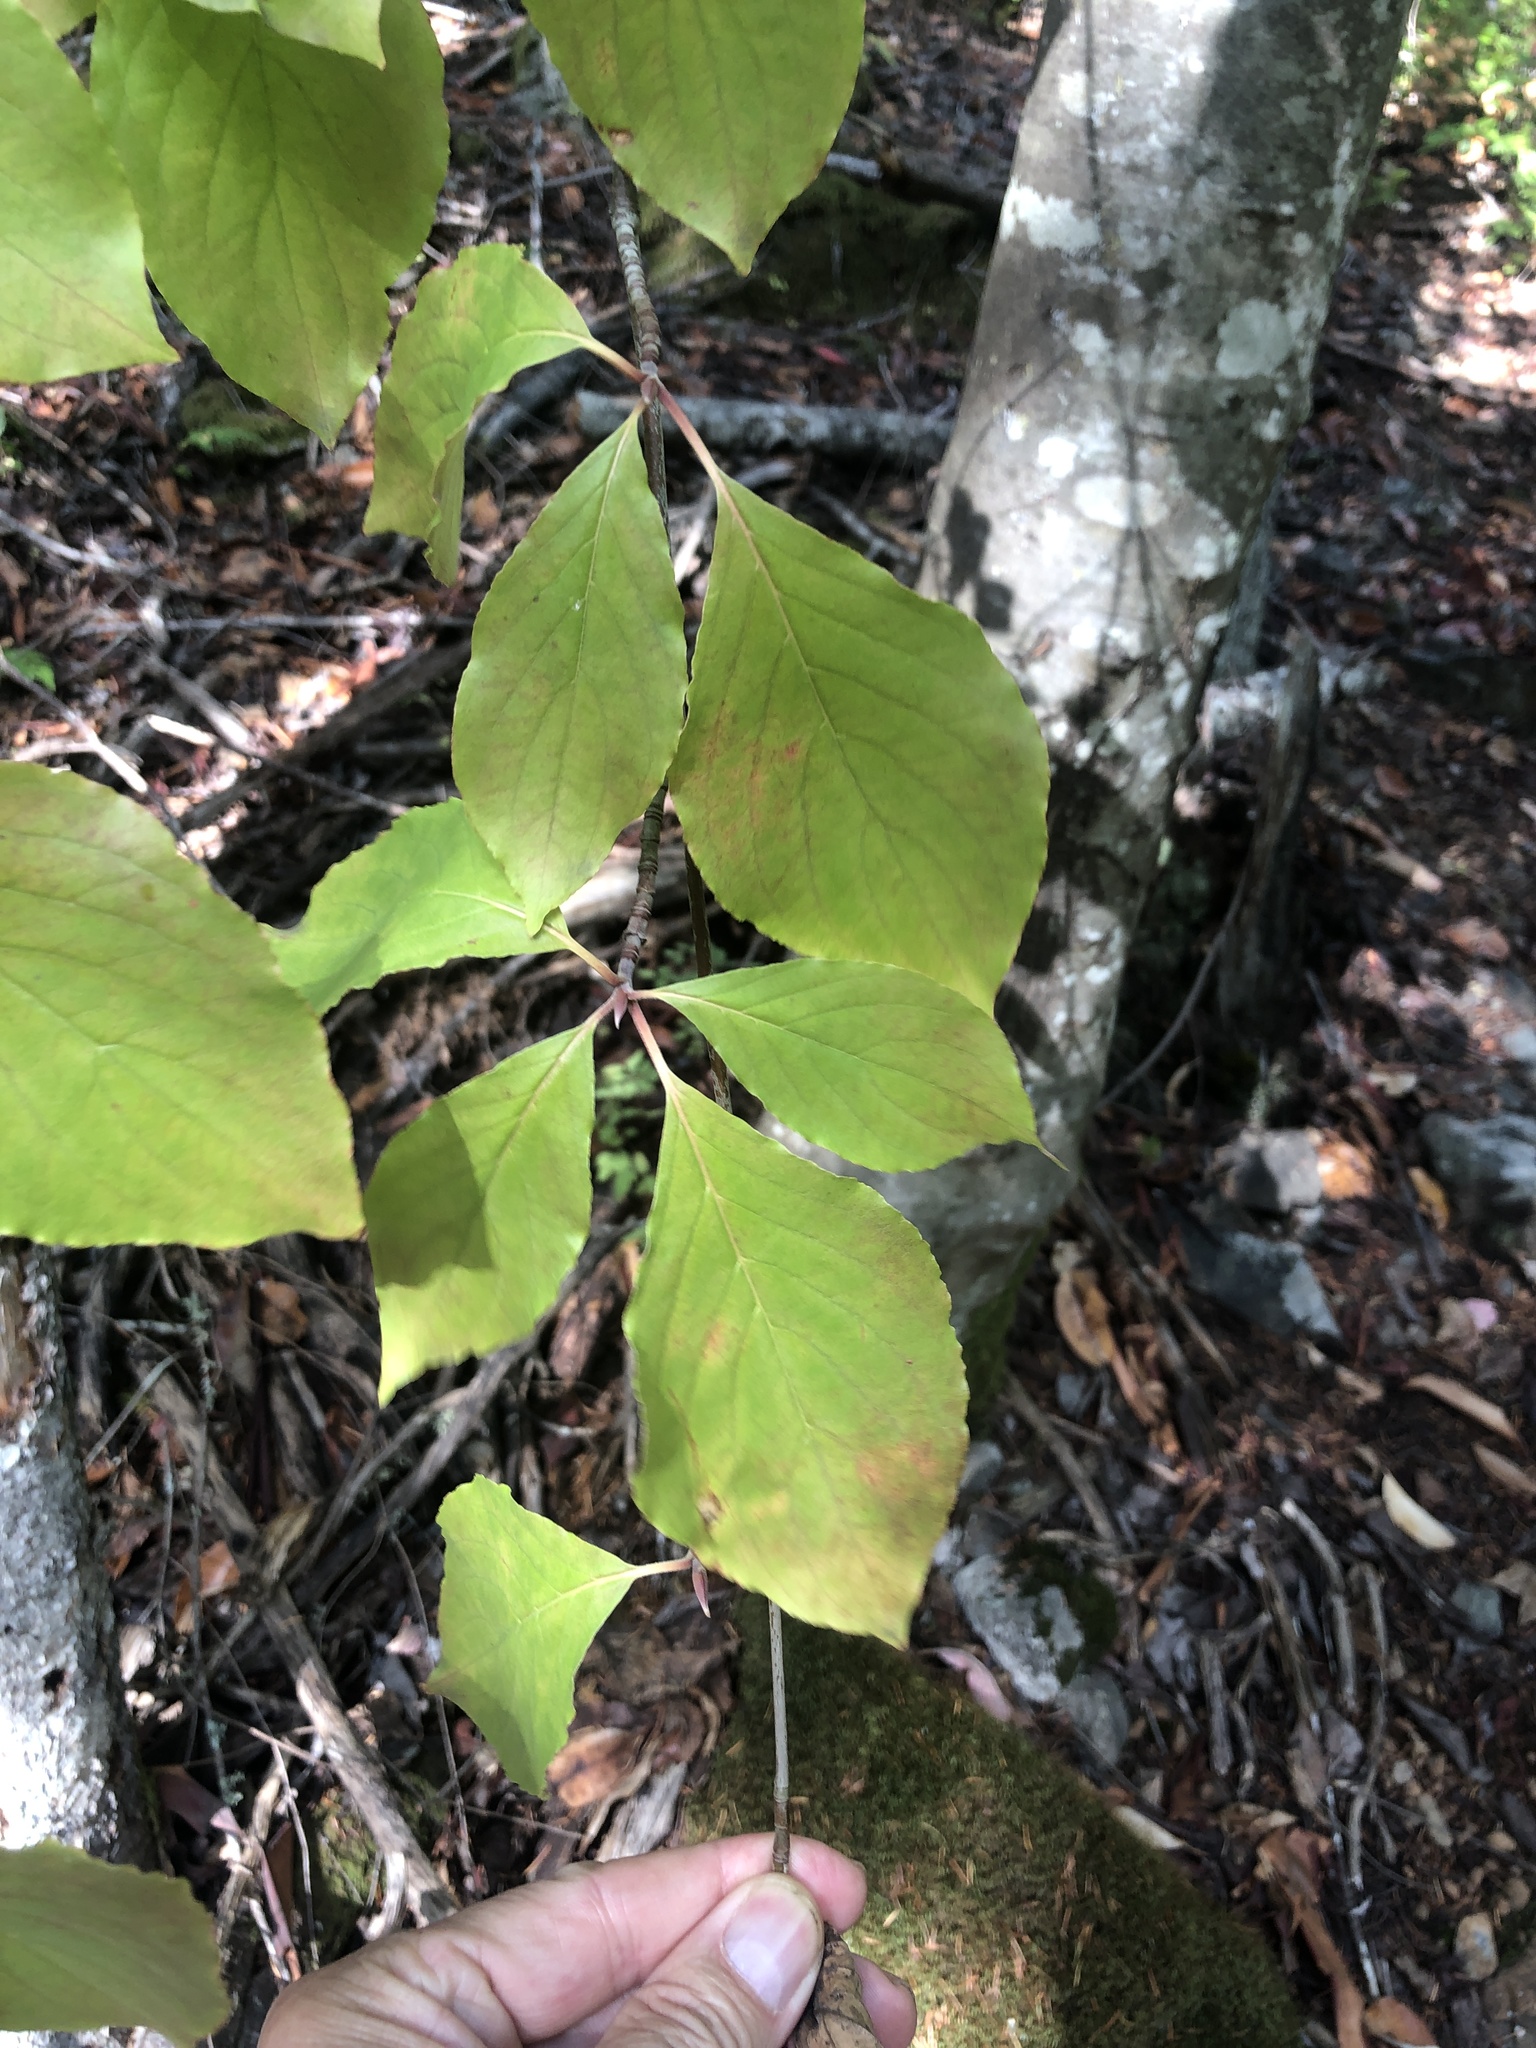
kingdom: Plantae
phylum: Tracheophyta
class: Magnoliopsida
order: Cornales
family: Cornaceae
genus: Cornus
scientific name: Cornus nuttallii
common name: Pacific dogwood
